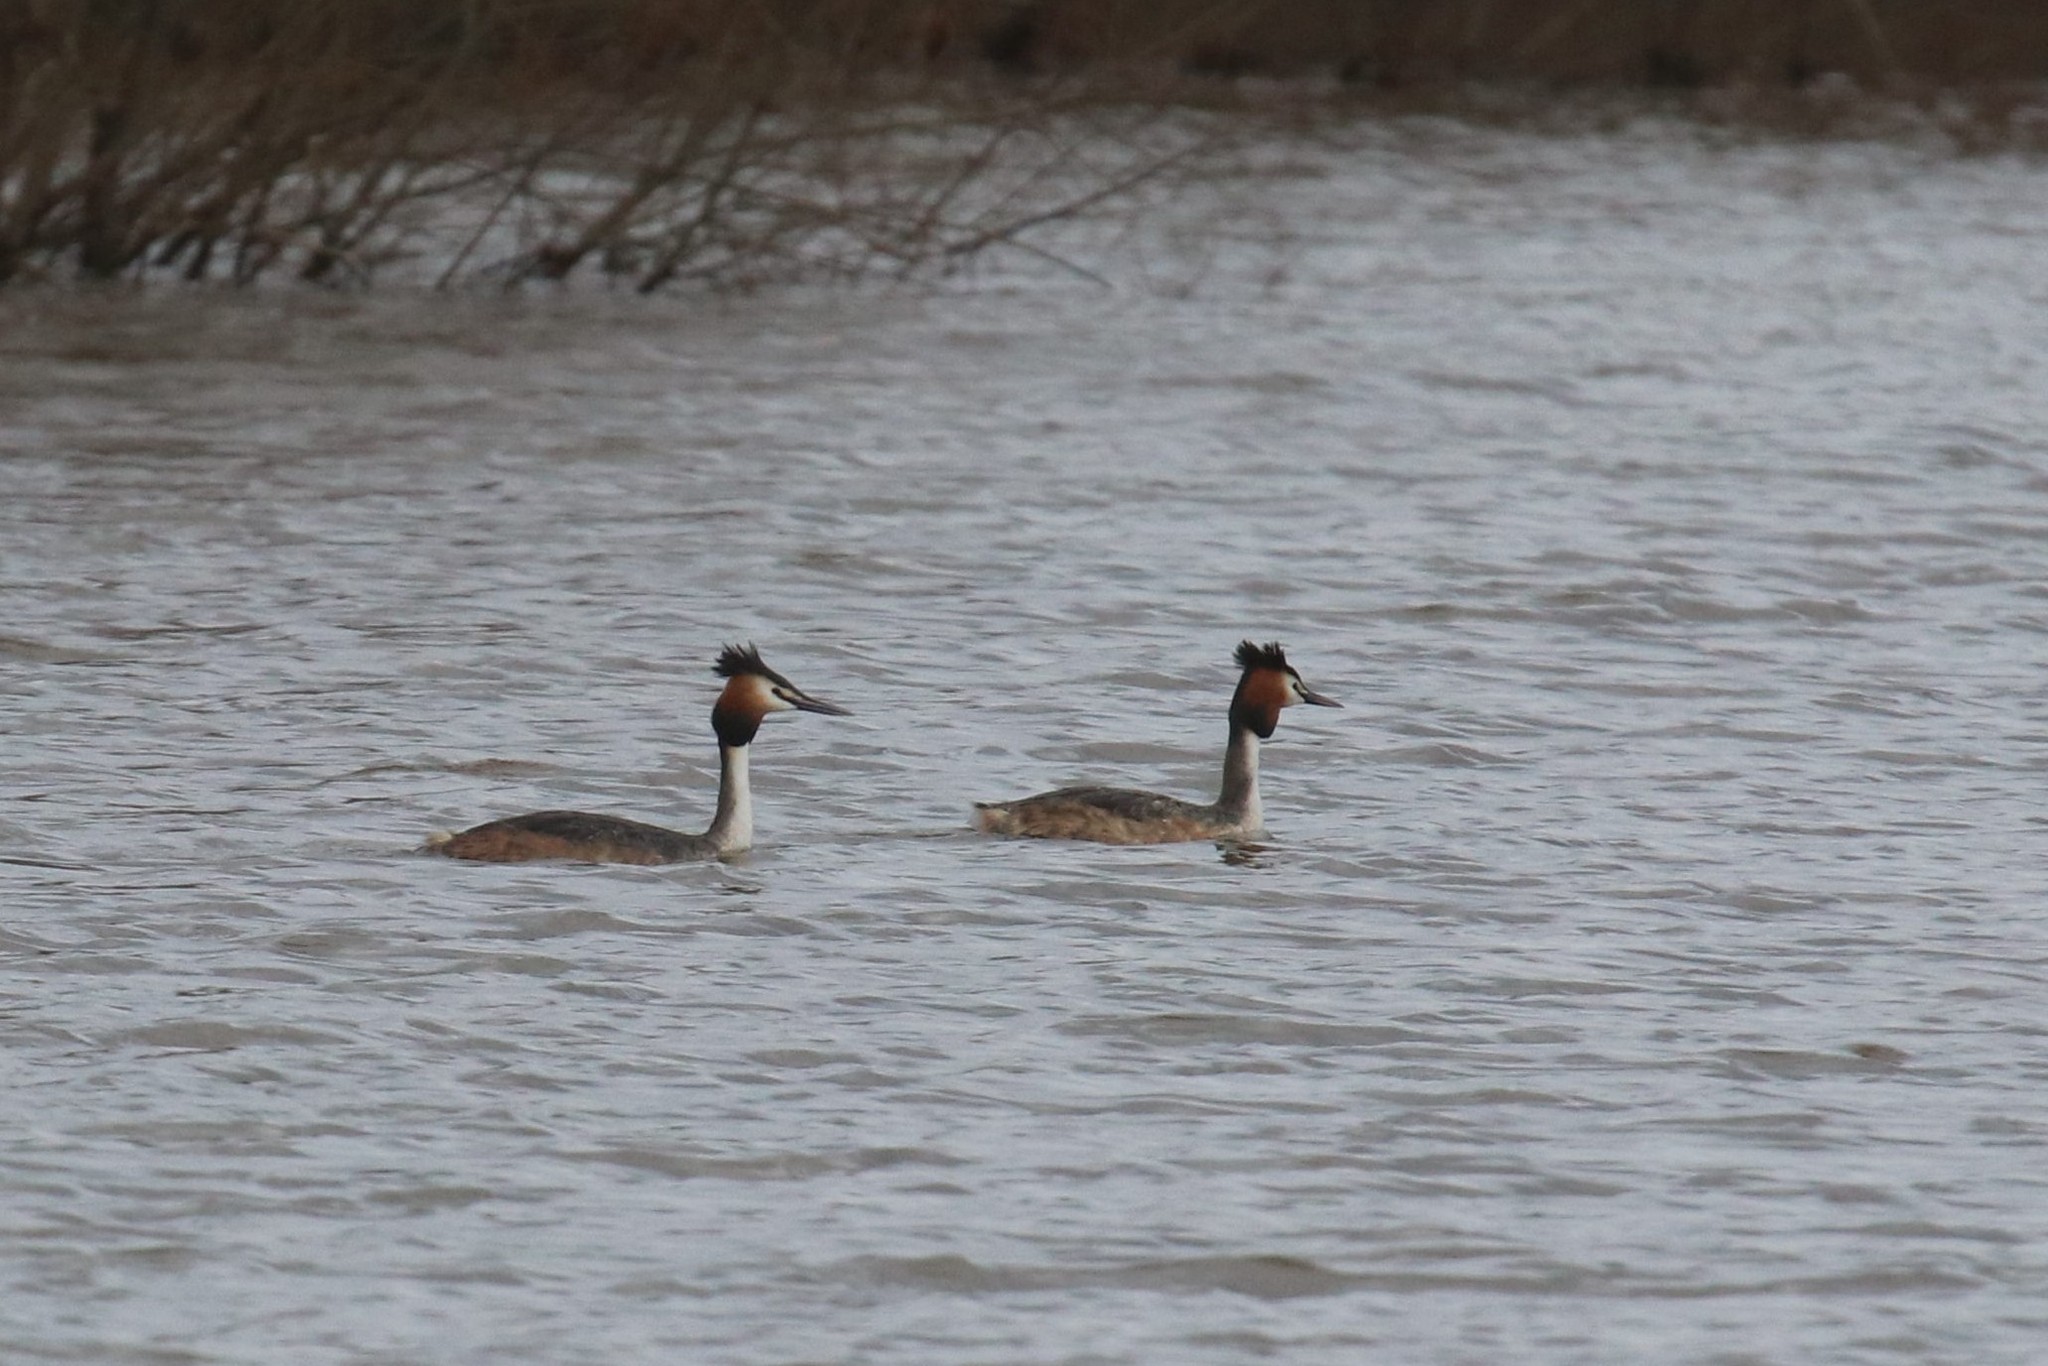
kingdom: Animalia
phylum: Chordata
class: Aves
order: Podicipediformes
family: Podicipedidae
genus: Podiceps
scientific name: Podiceps cristatus
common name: Great crested grebe
